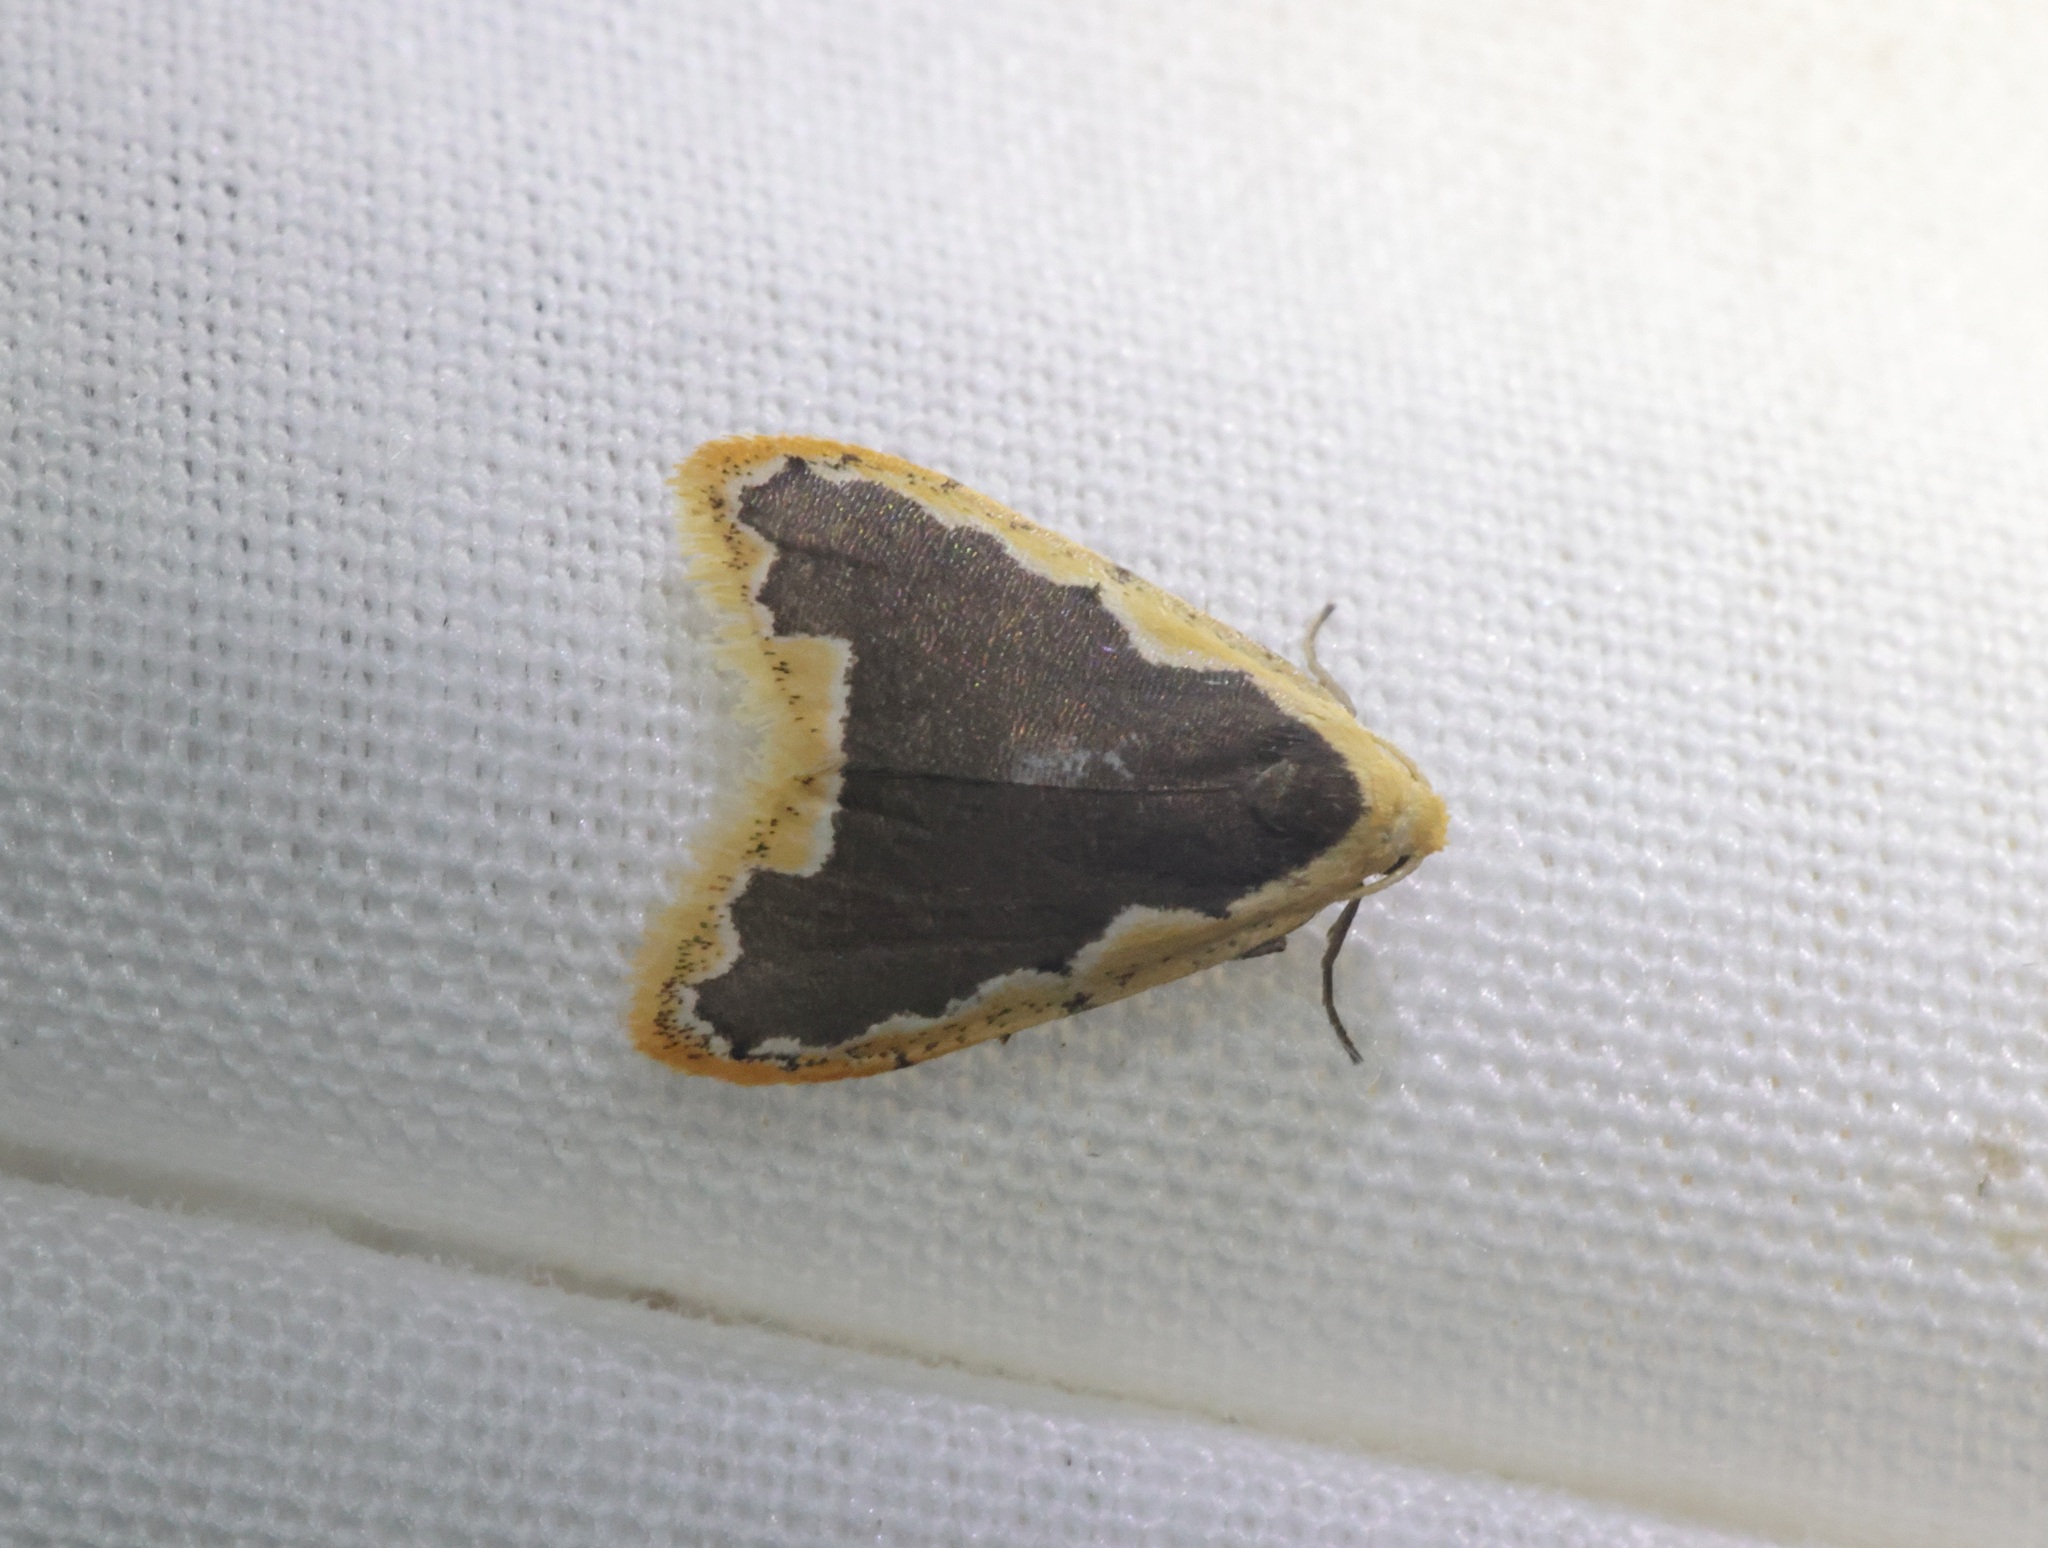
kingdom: Animalia
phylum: Arthropoda
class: Insecta
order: Lepidoptera
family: Erebidae
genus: Diduga
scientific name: Diduga flavicostata
